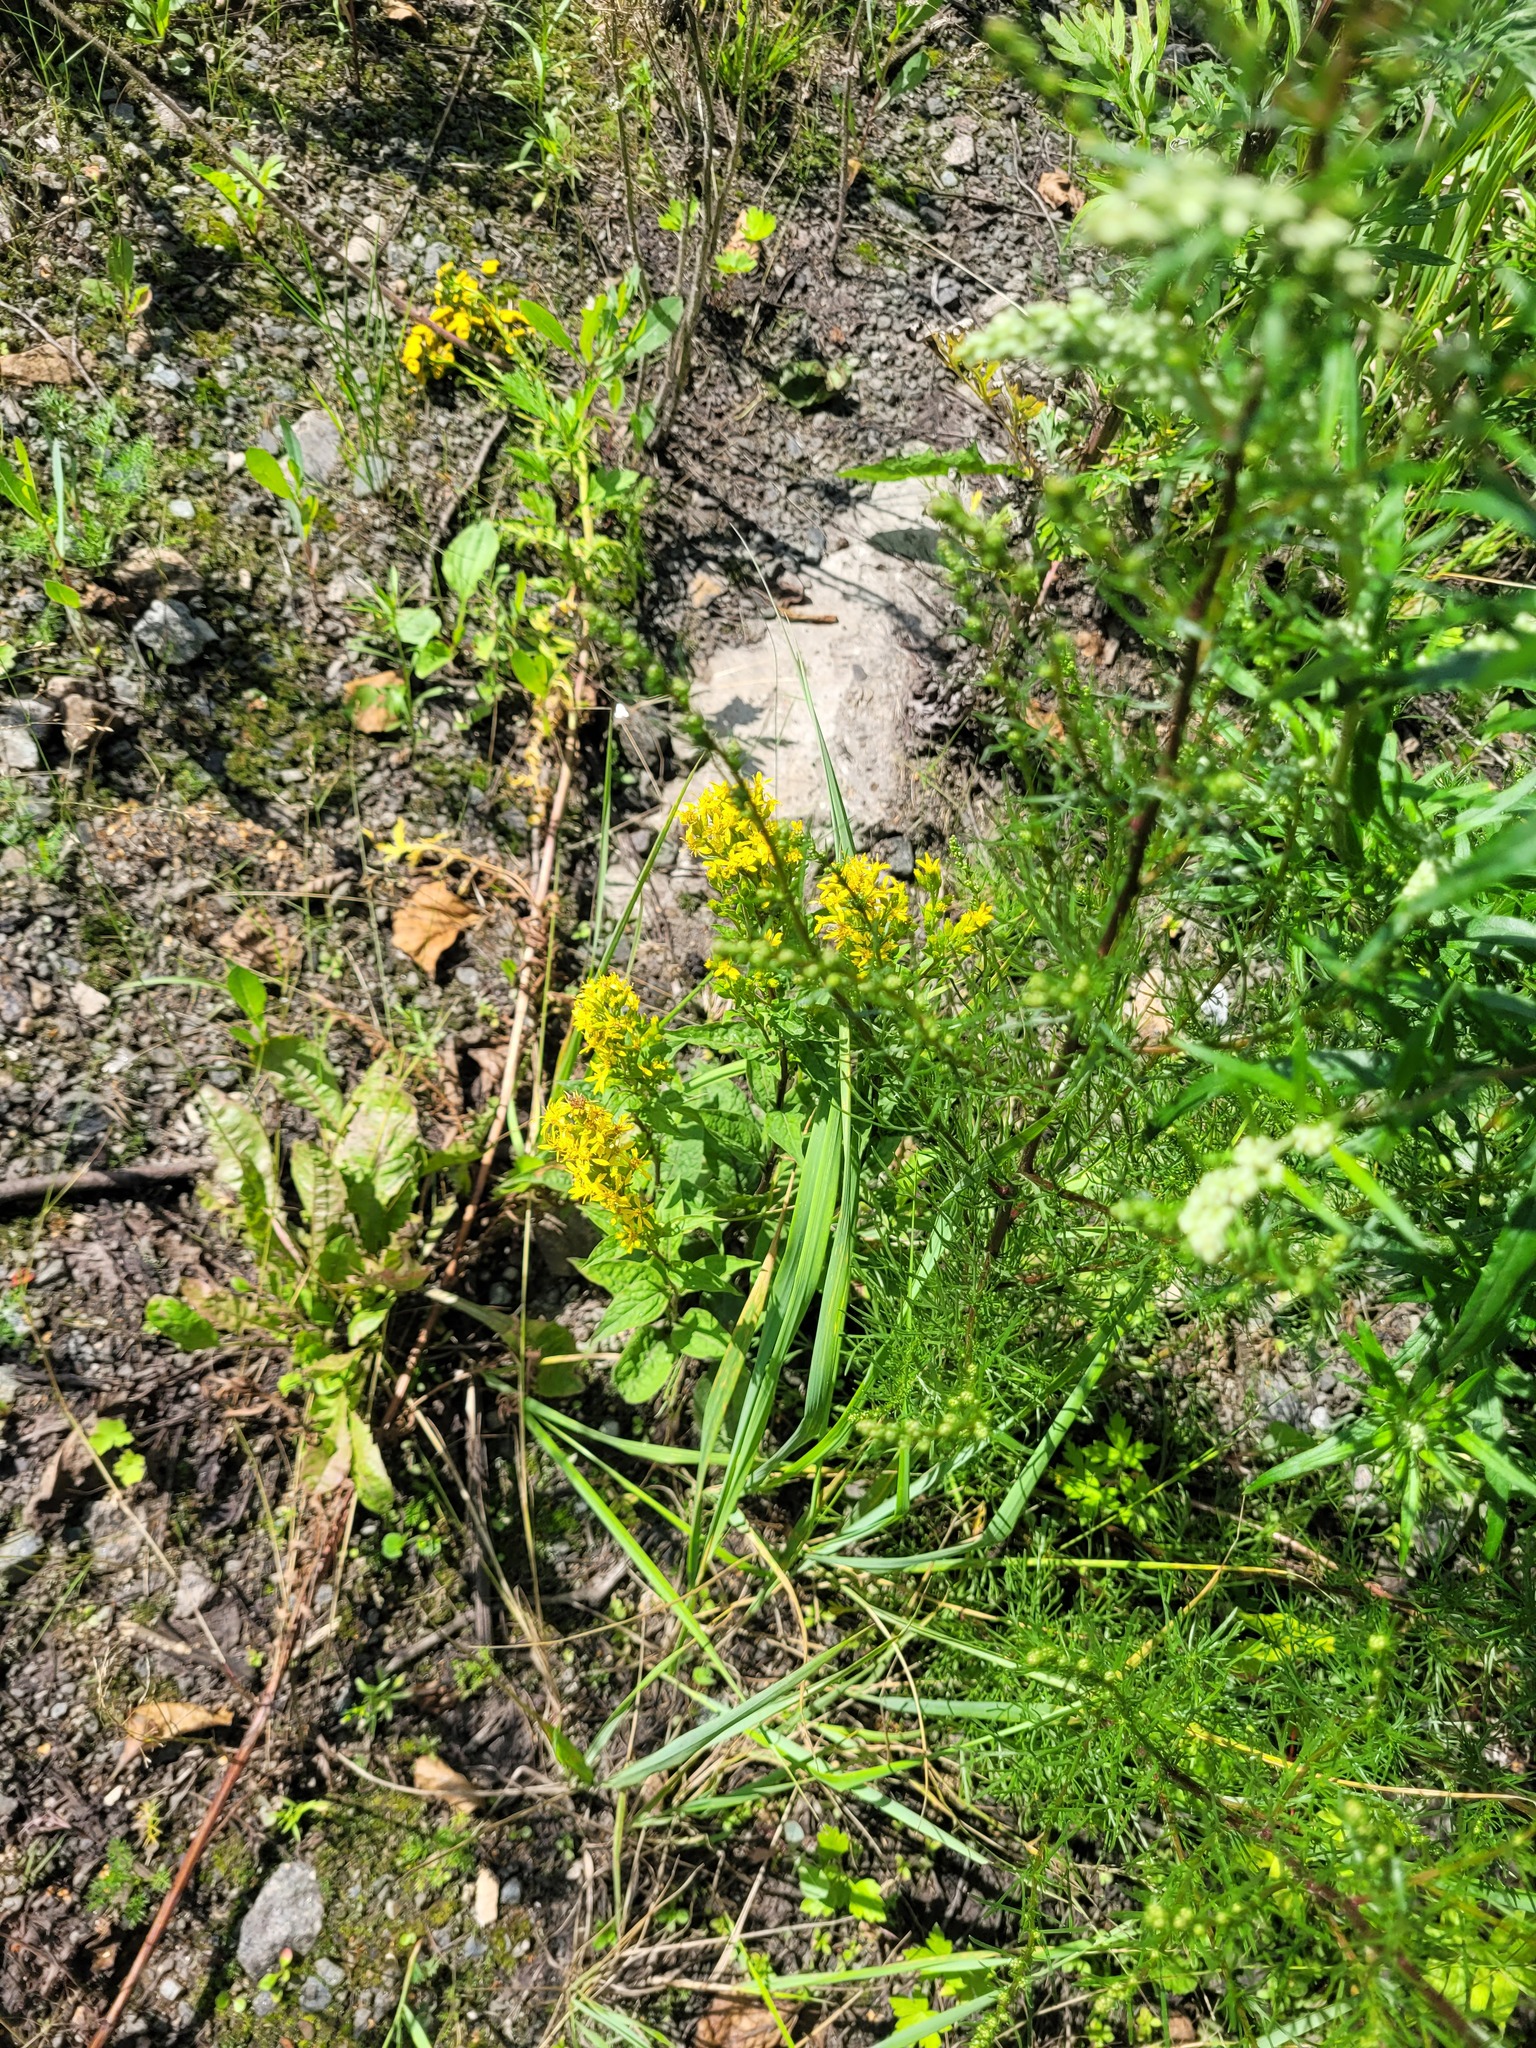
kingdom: Plantae
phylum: Tracheophyta
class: Magnoliopsida
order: Asterales
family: Asteraceae
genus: Solidago
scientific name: Solidago virgaurea
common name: Goldenrod
